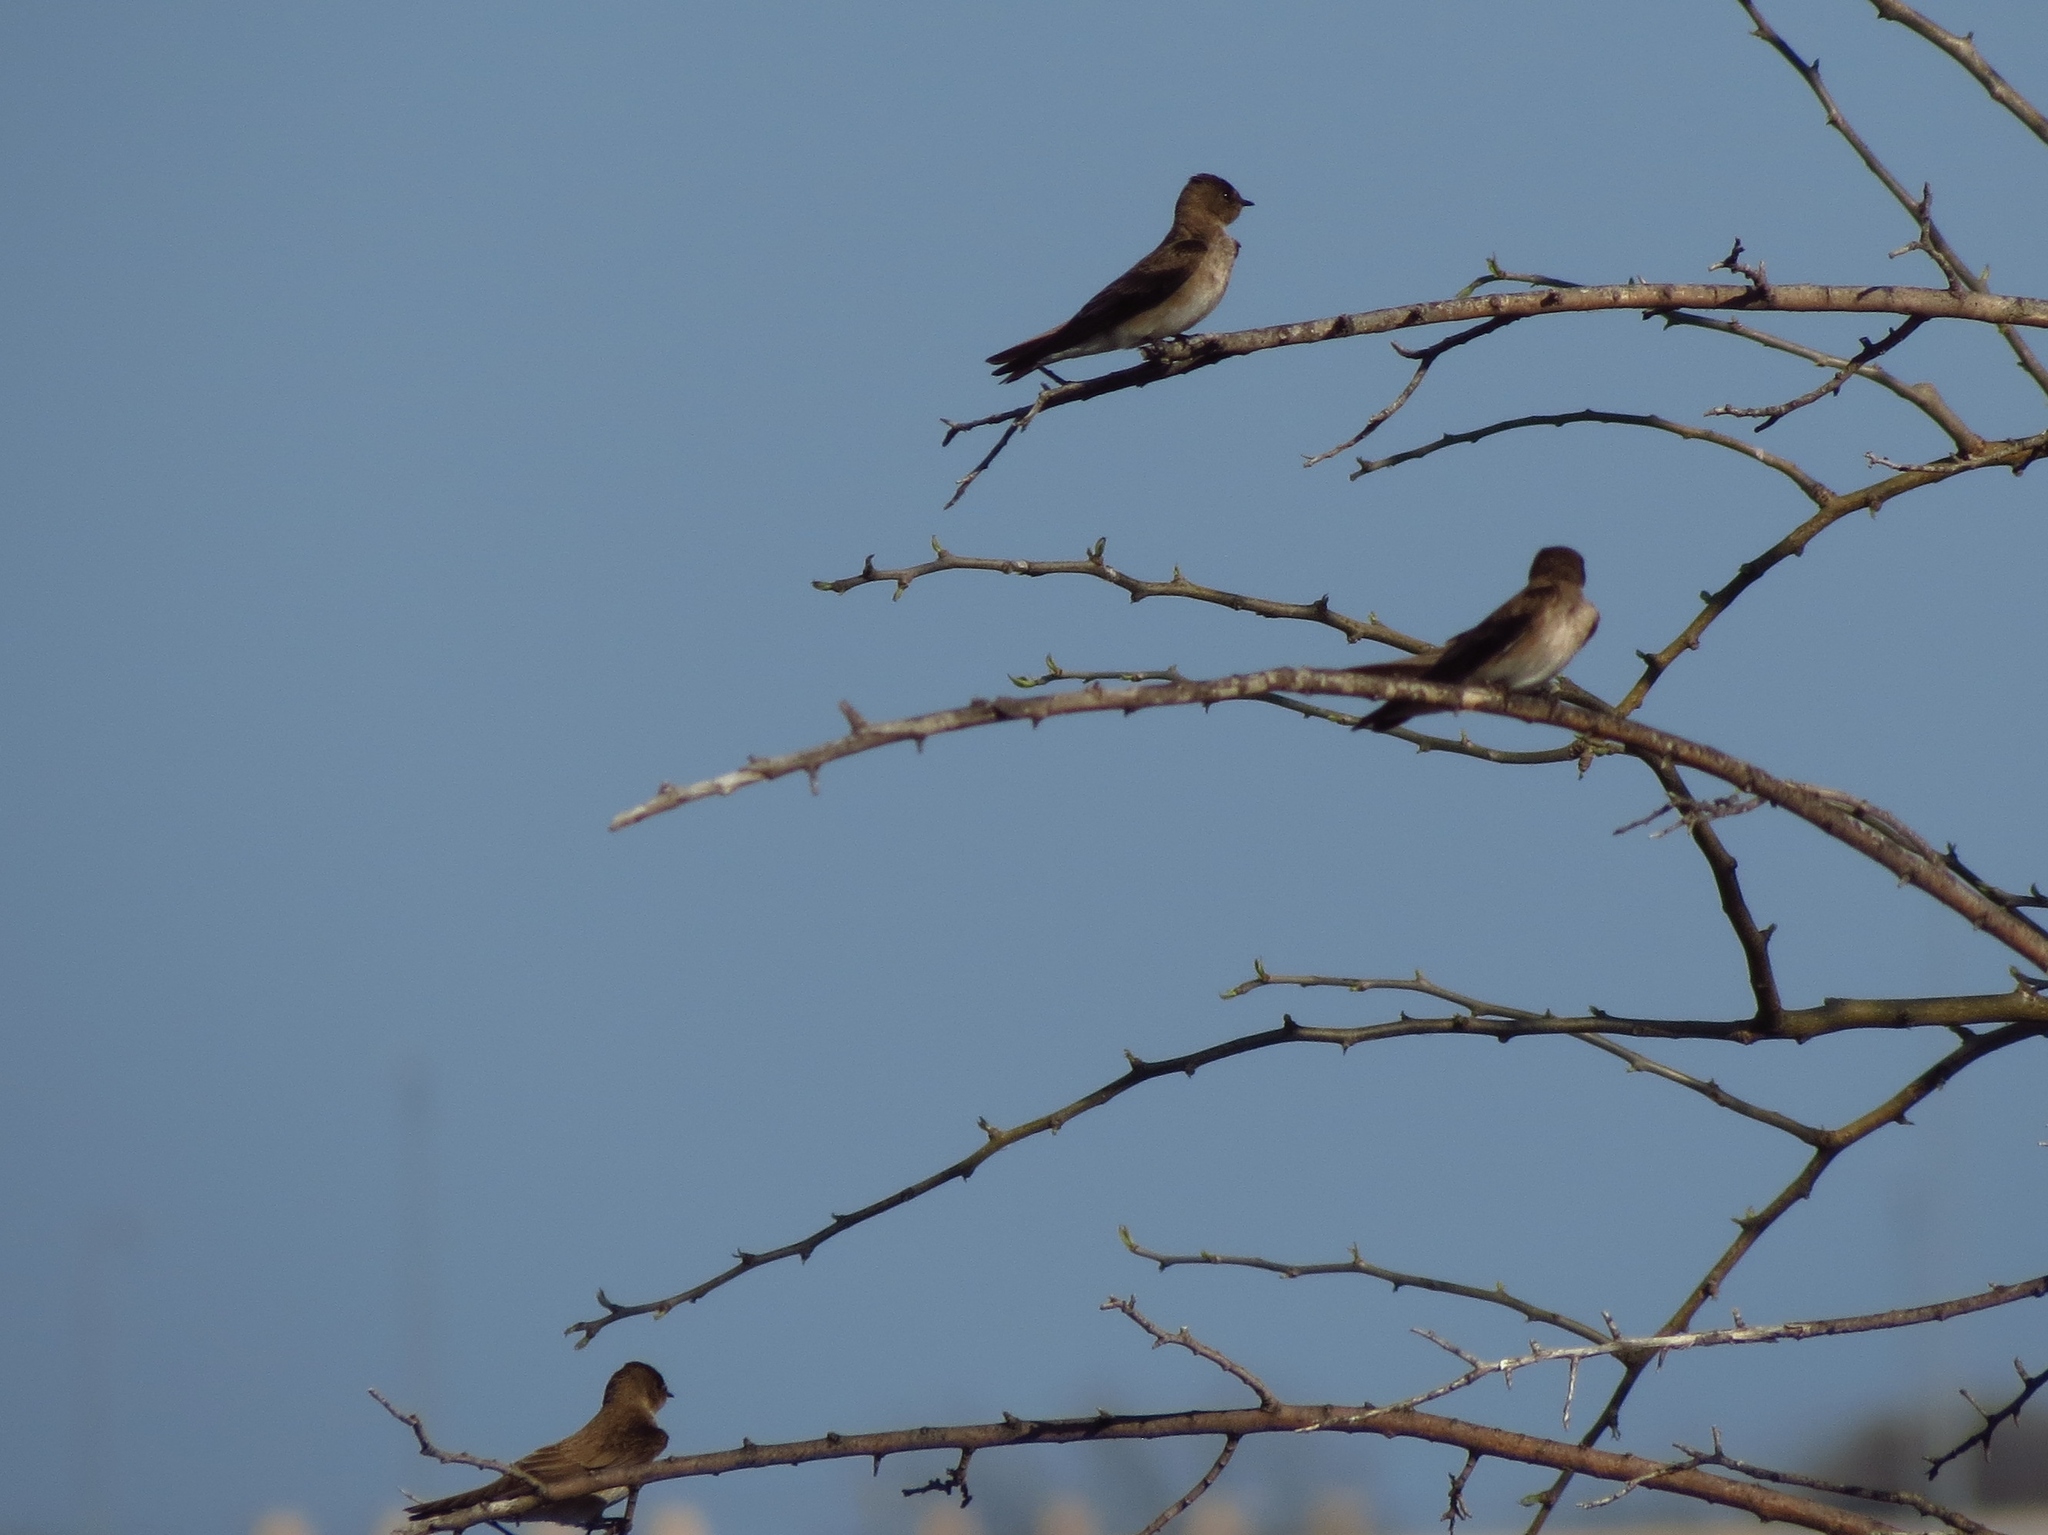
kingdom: Animalia
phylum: Chordata
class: Aves
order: Passeriformes
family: Hirundinidae
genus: Stelgidopteryx
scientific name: Stelgidopteryx serripennis
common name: Northern rough-winged swallow
